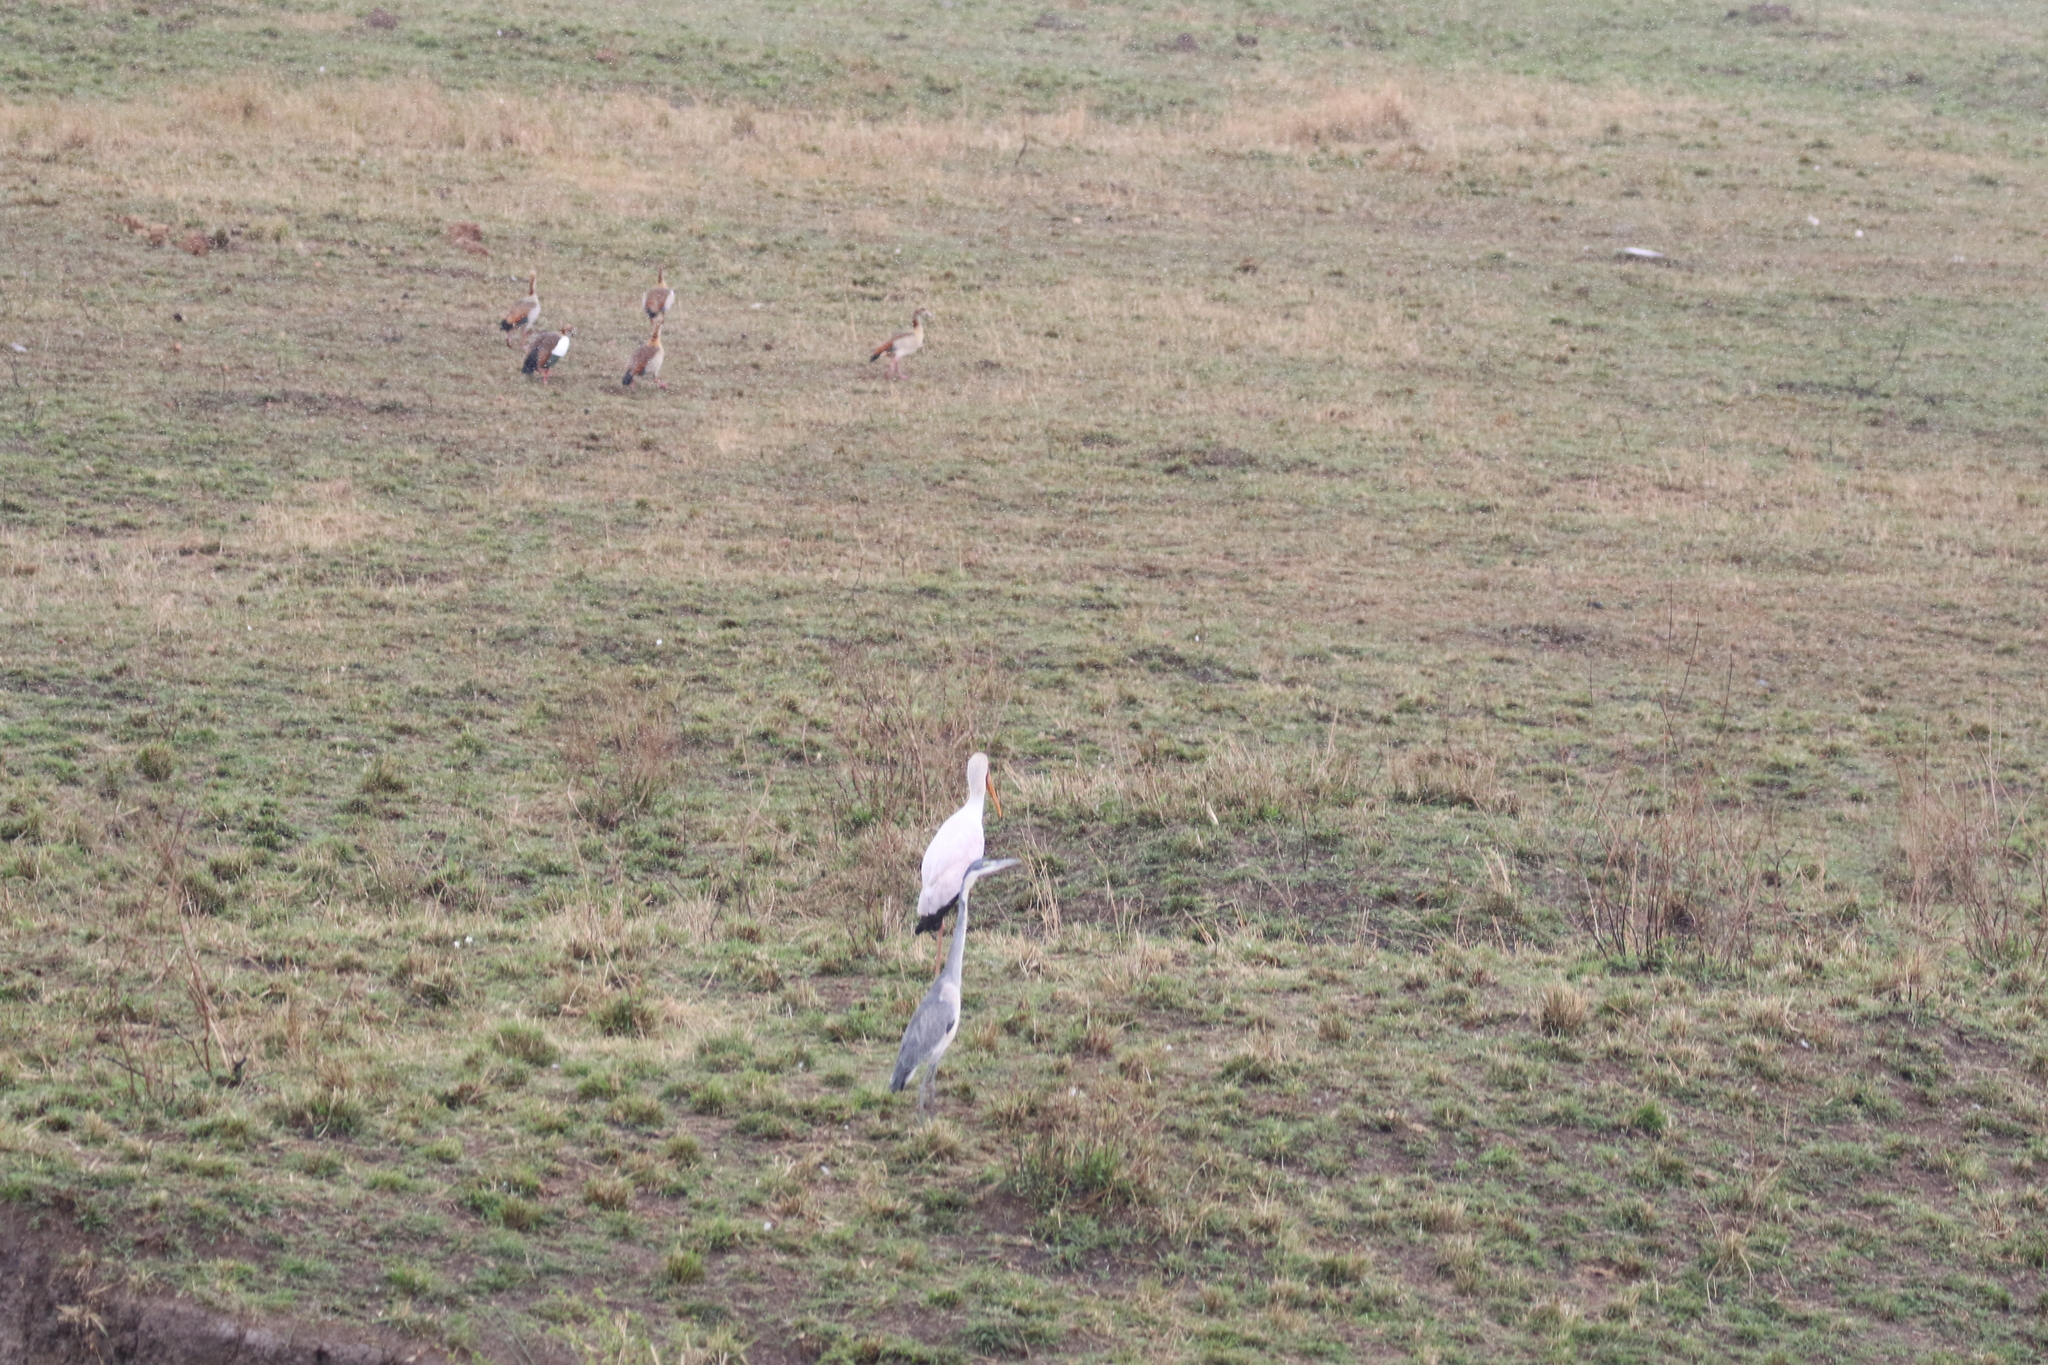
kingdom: Animalia
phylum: Chordata
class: Aves
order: Anseriformes
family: Anatidae
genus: Alopochen
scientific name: Alopochen aegyptiaca
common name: Egyptian goose
